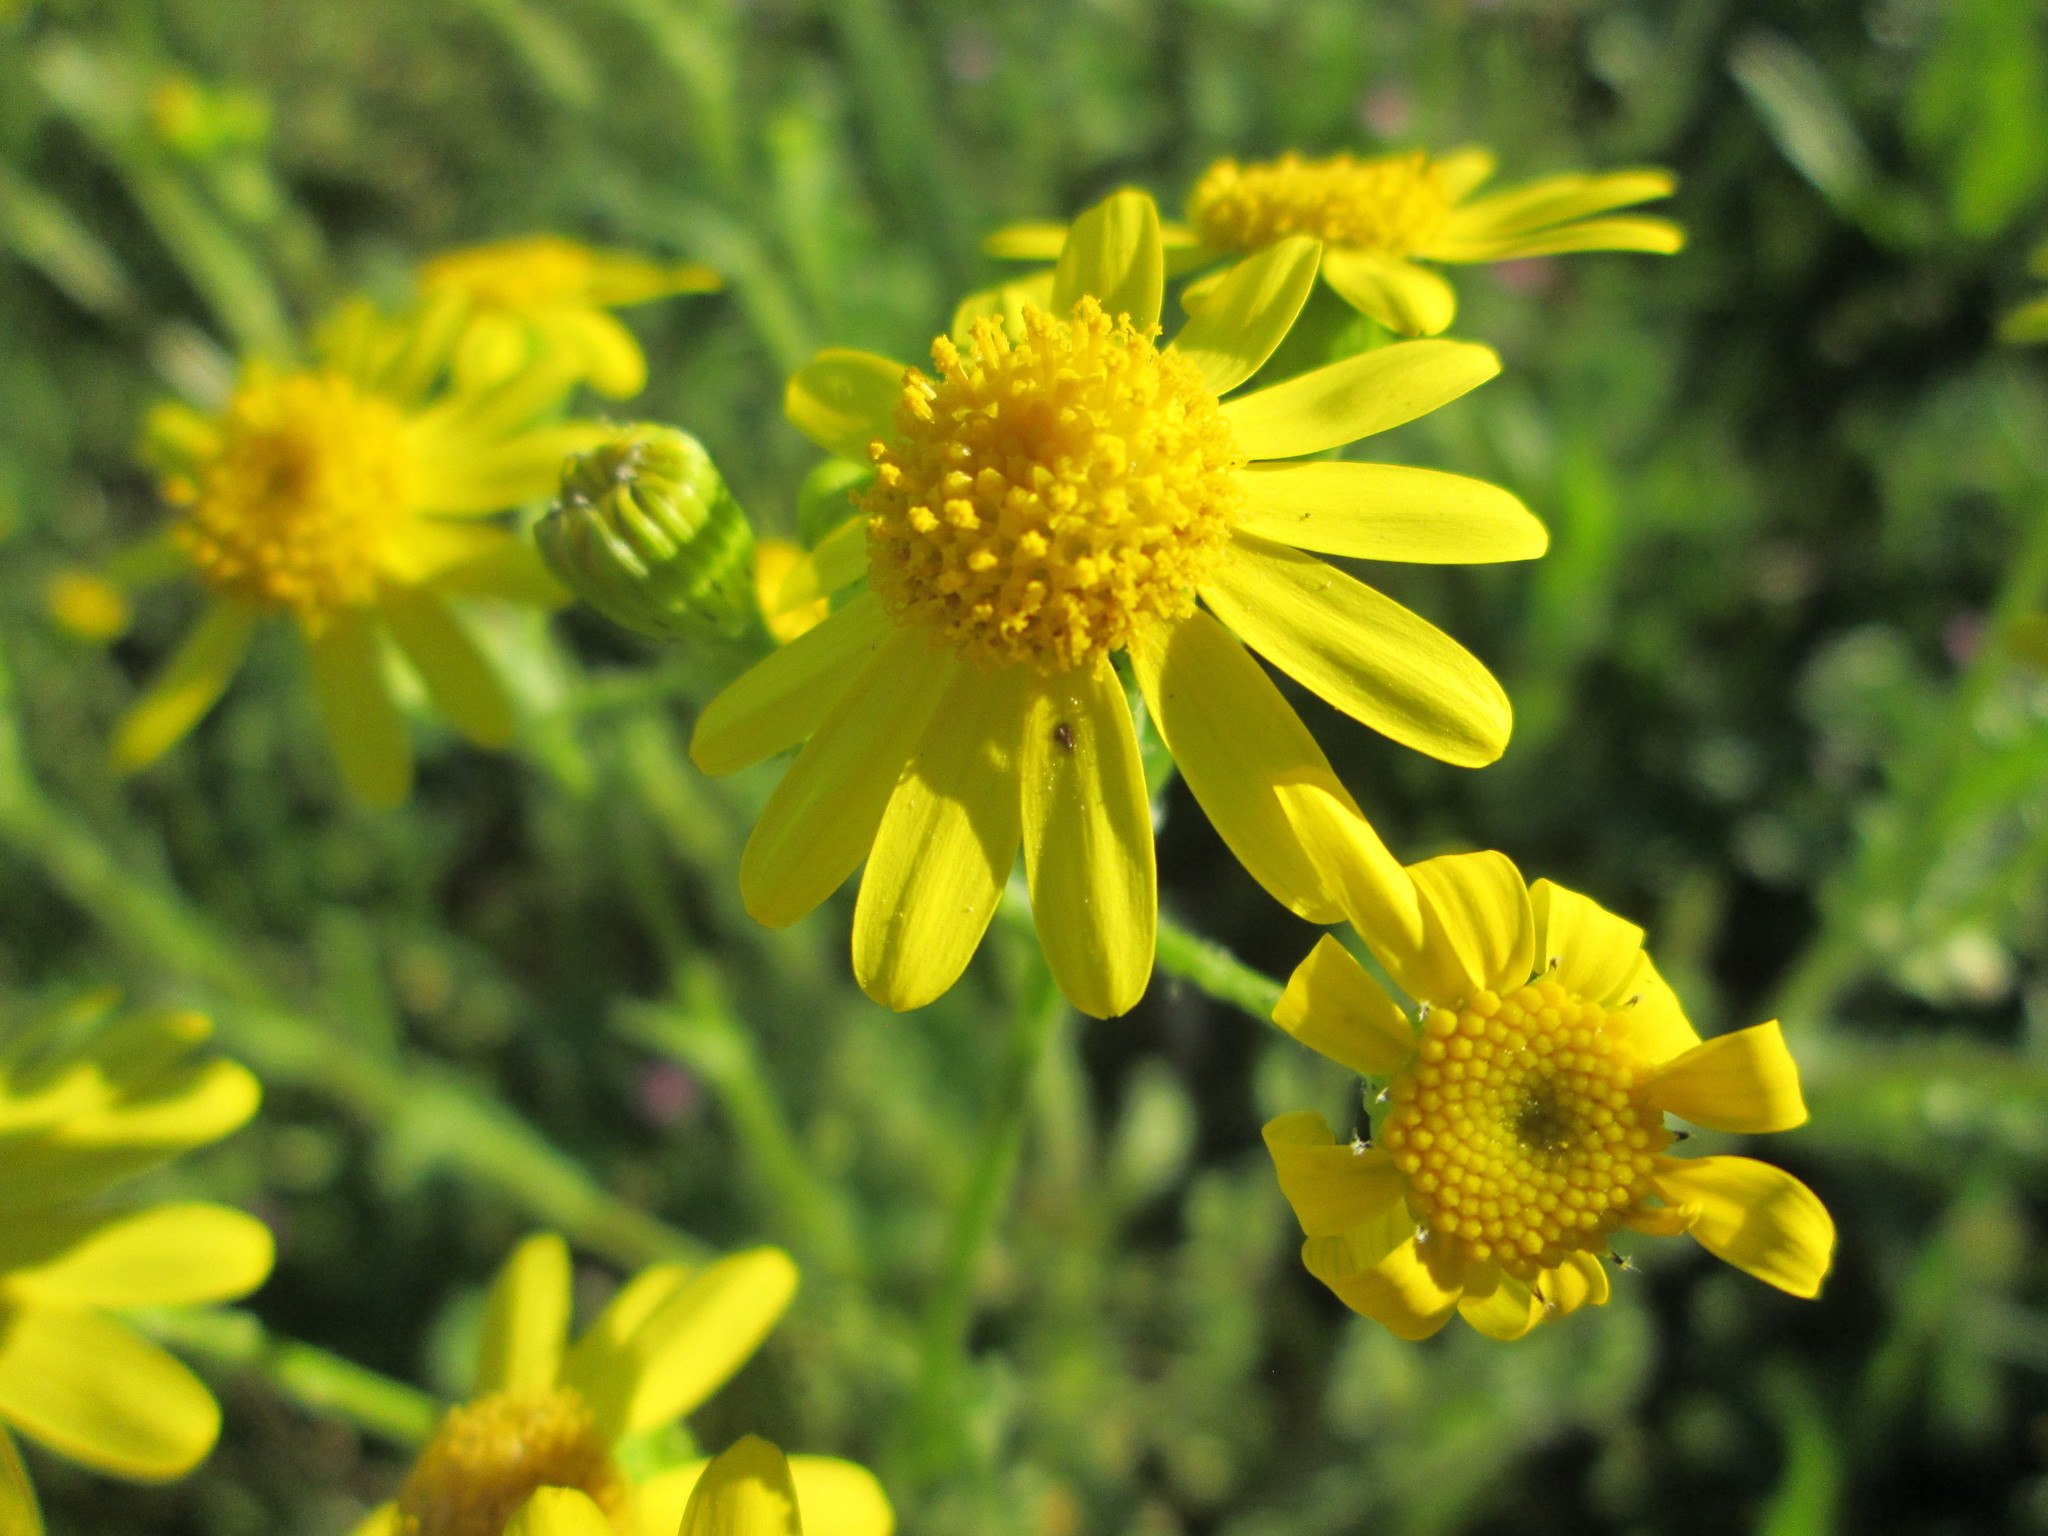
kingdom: Plantae
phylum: Tracheophyta
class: Magnoliopsida
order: Asterales
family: Asteraceae
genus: Senecio
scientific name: Senecio vernalis
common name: Eastern groundsel
